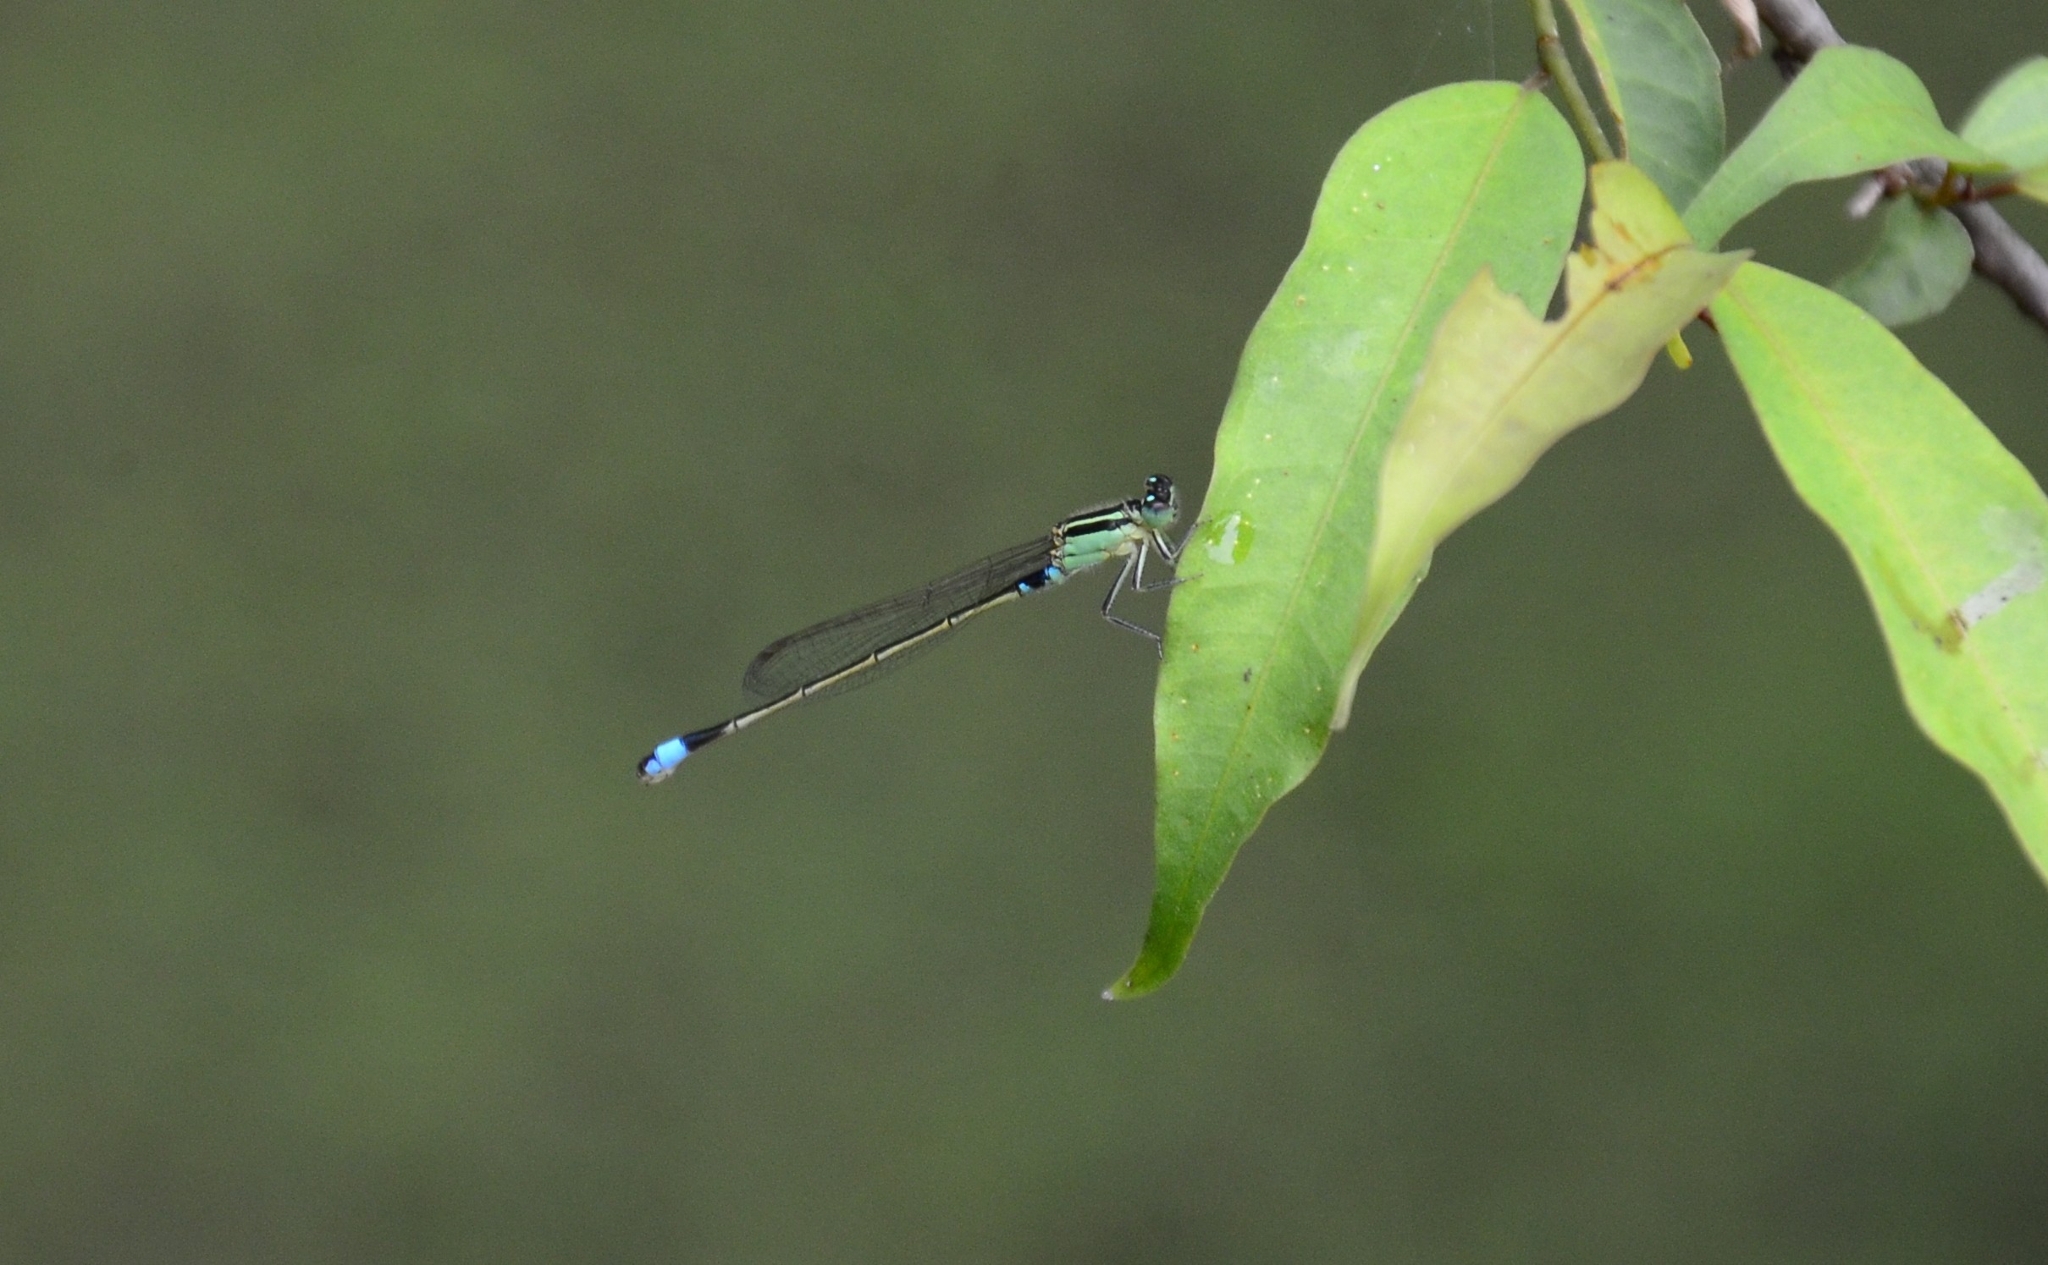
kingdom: Animalia
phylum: Arthropoda
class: Insecta
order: Odonata
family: Coenagrionidae
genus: Ischnura
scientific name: Ischnura senegalensis
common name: Tropical bluetail
